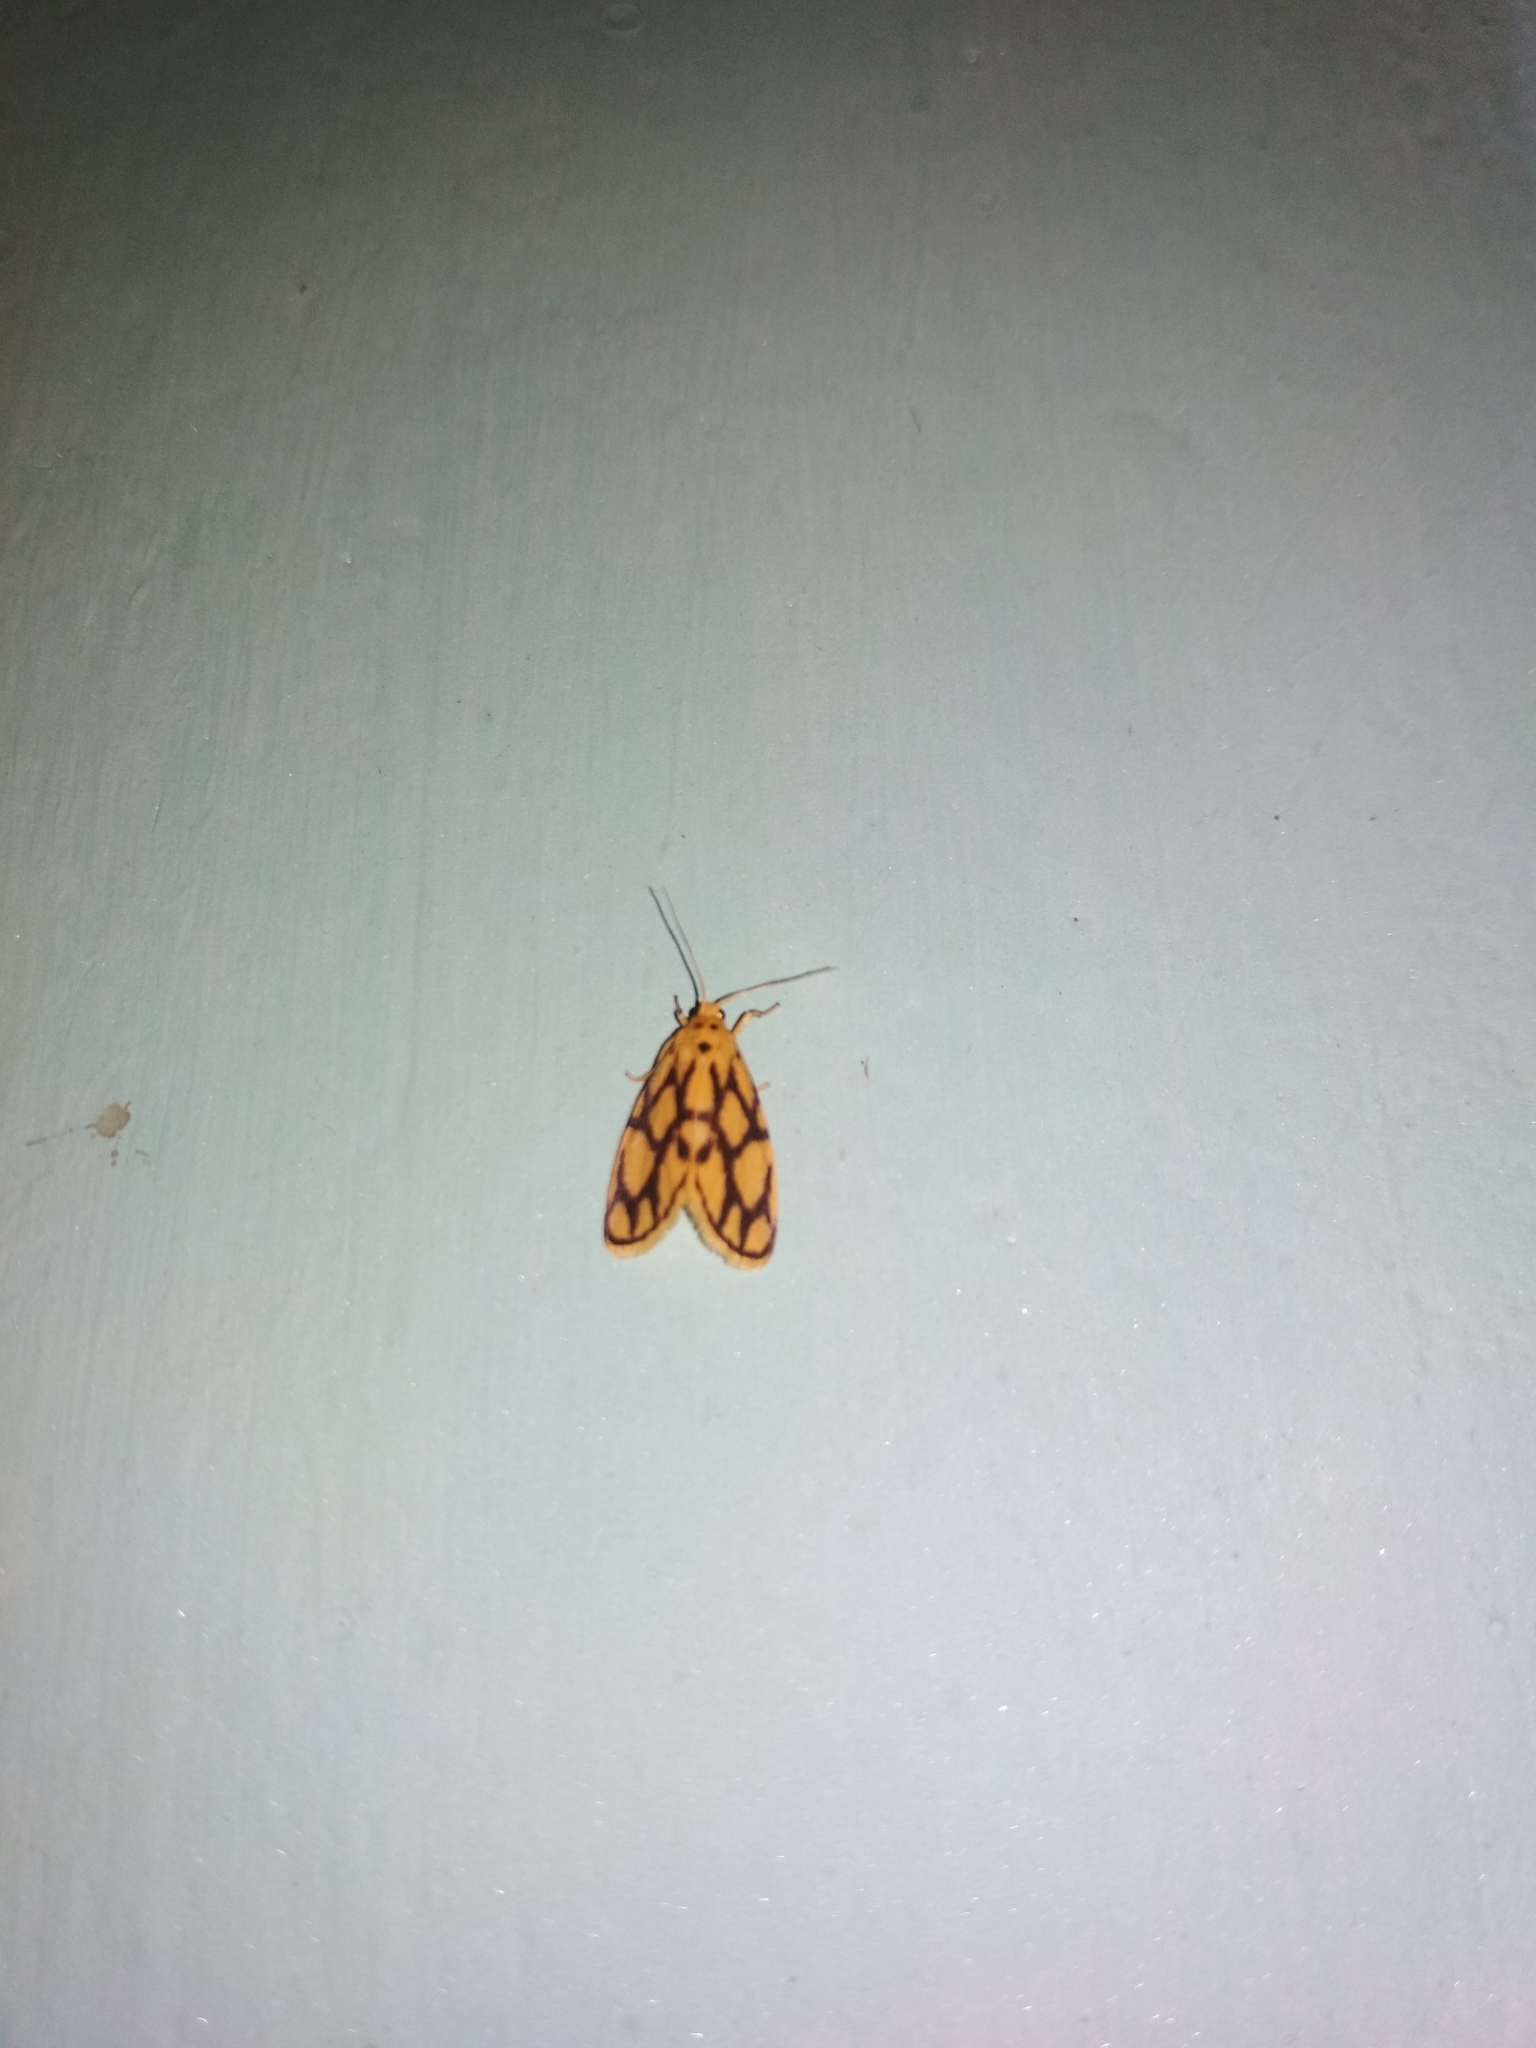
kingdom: Animalia
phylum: Arthropoda
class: Insecta
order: Lepidoptera
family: Erebidae
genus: Miltochrista
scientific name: Miltochrista conjunctana
